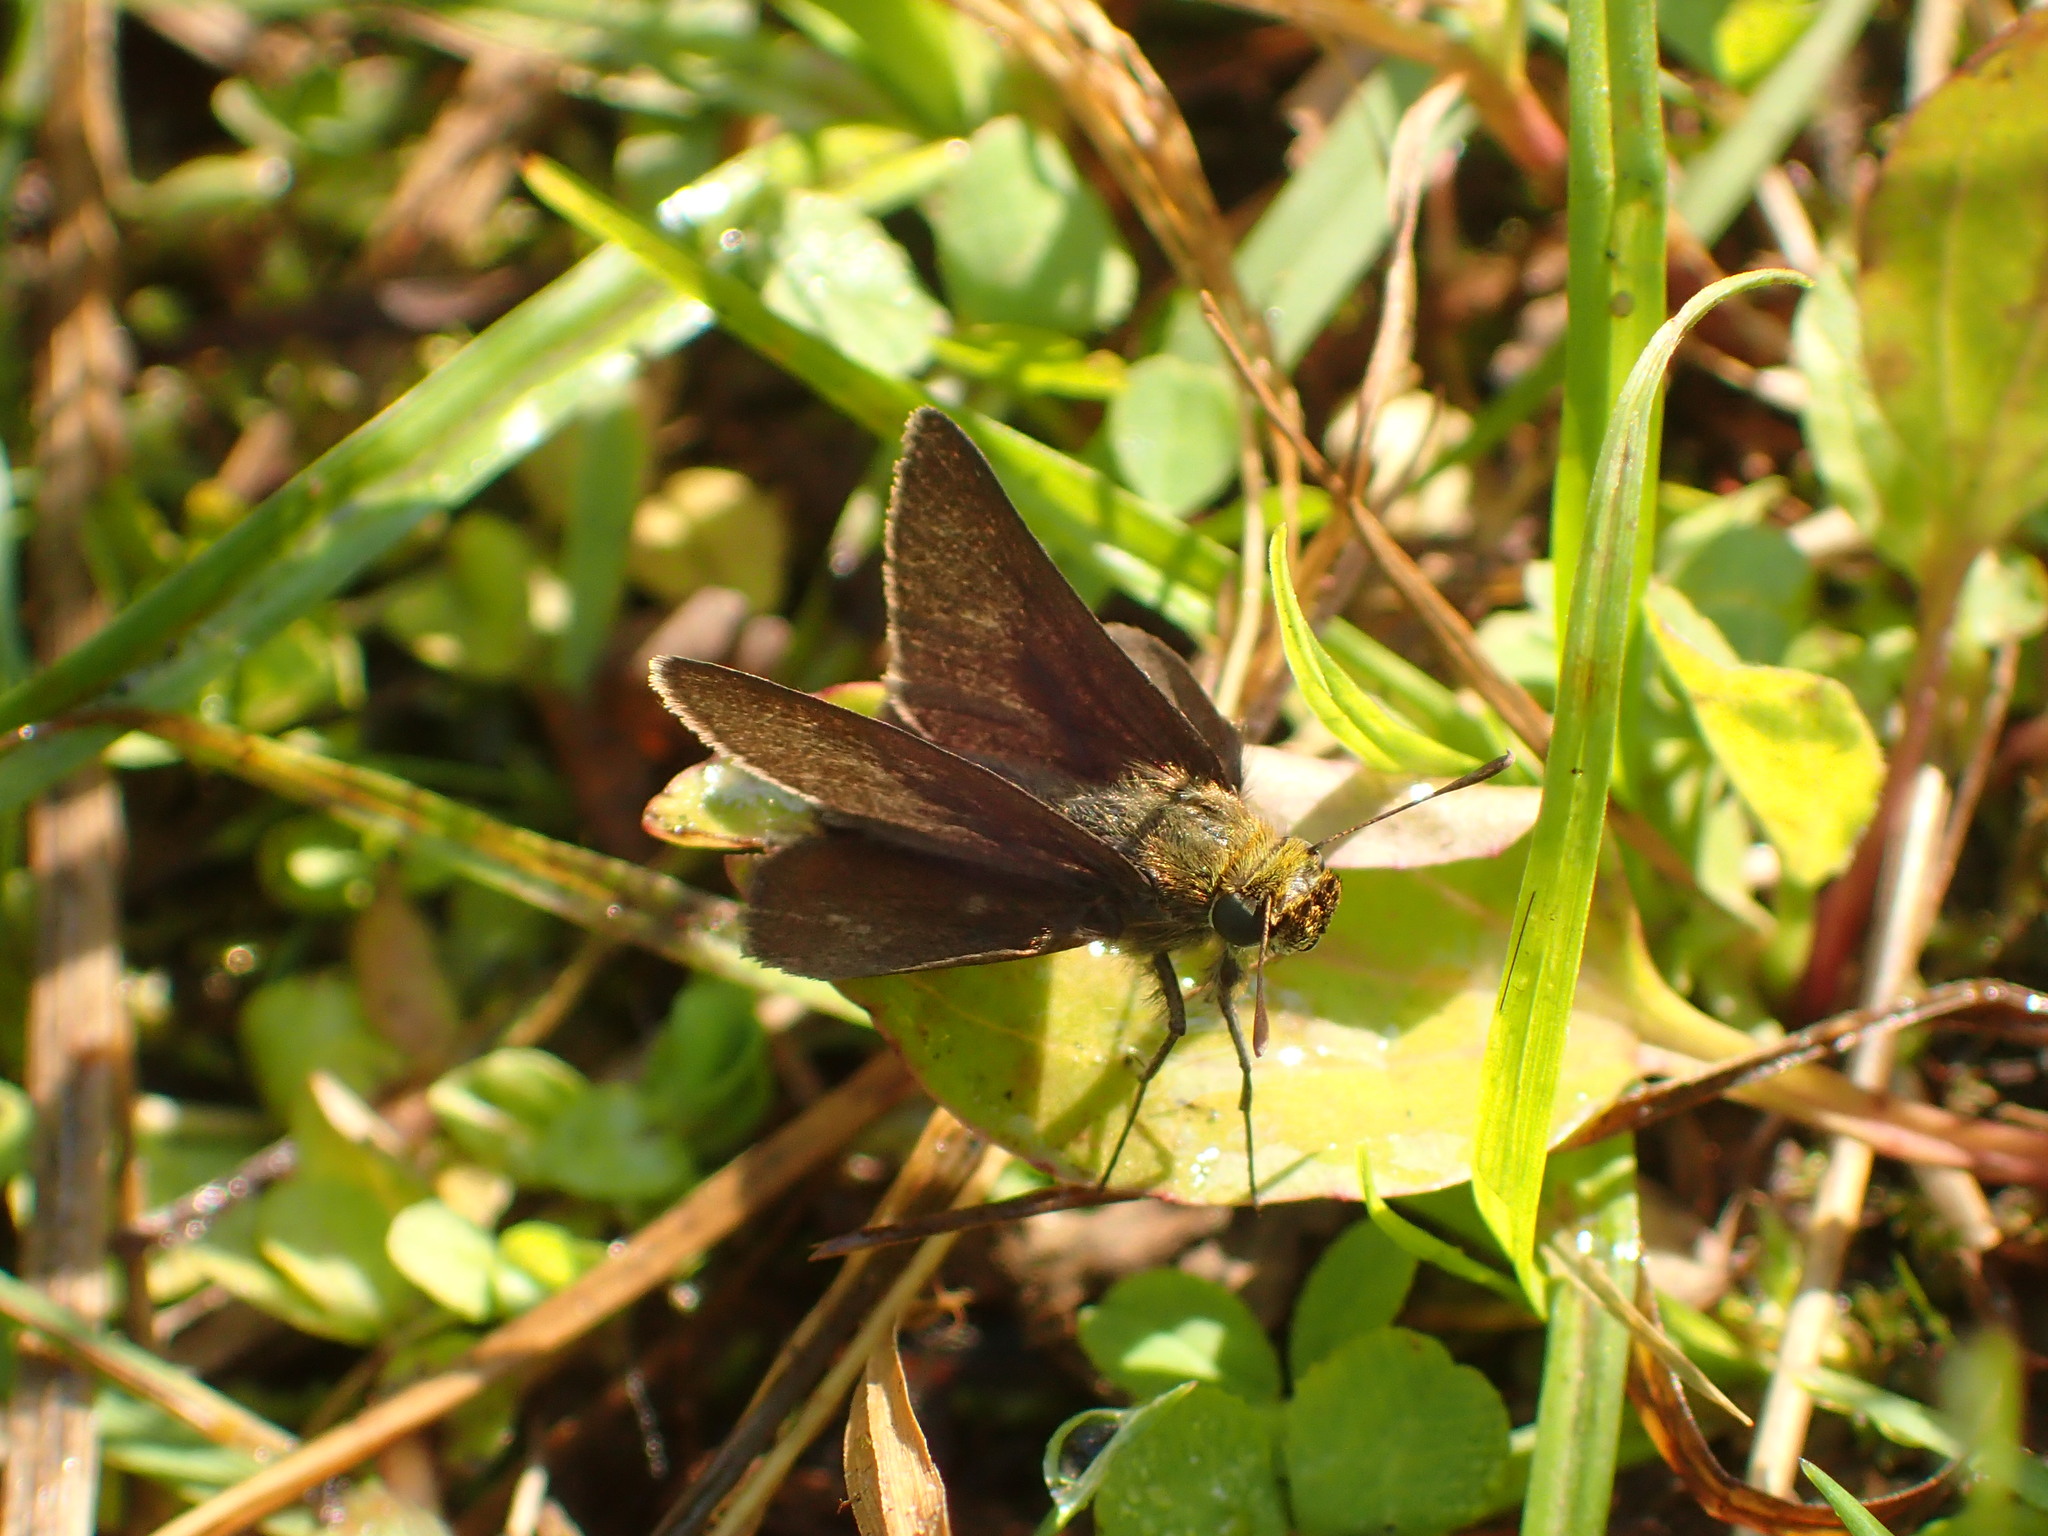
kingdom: Animalia
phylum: Arthropoda
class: Insecta
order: Lepidoptera
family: Hesperiidae
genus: Euphyes
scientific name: Euphyes vestris
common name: Dun skipper
